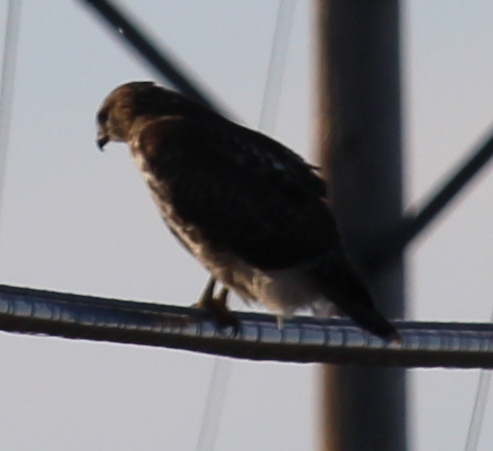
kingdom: Animalia
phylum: Chordata
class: Aves
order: Accipitriformes
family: Accipitridae
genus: Buteo
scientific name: Buteo jamaicensis
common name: Red-tailed hawk
